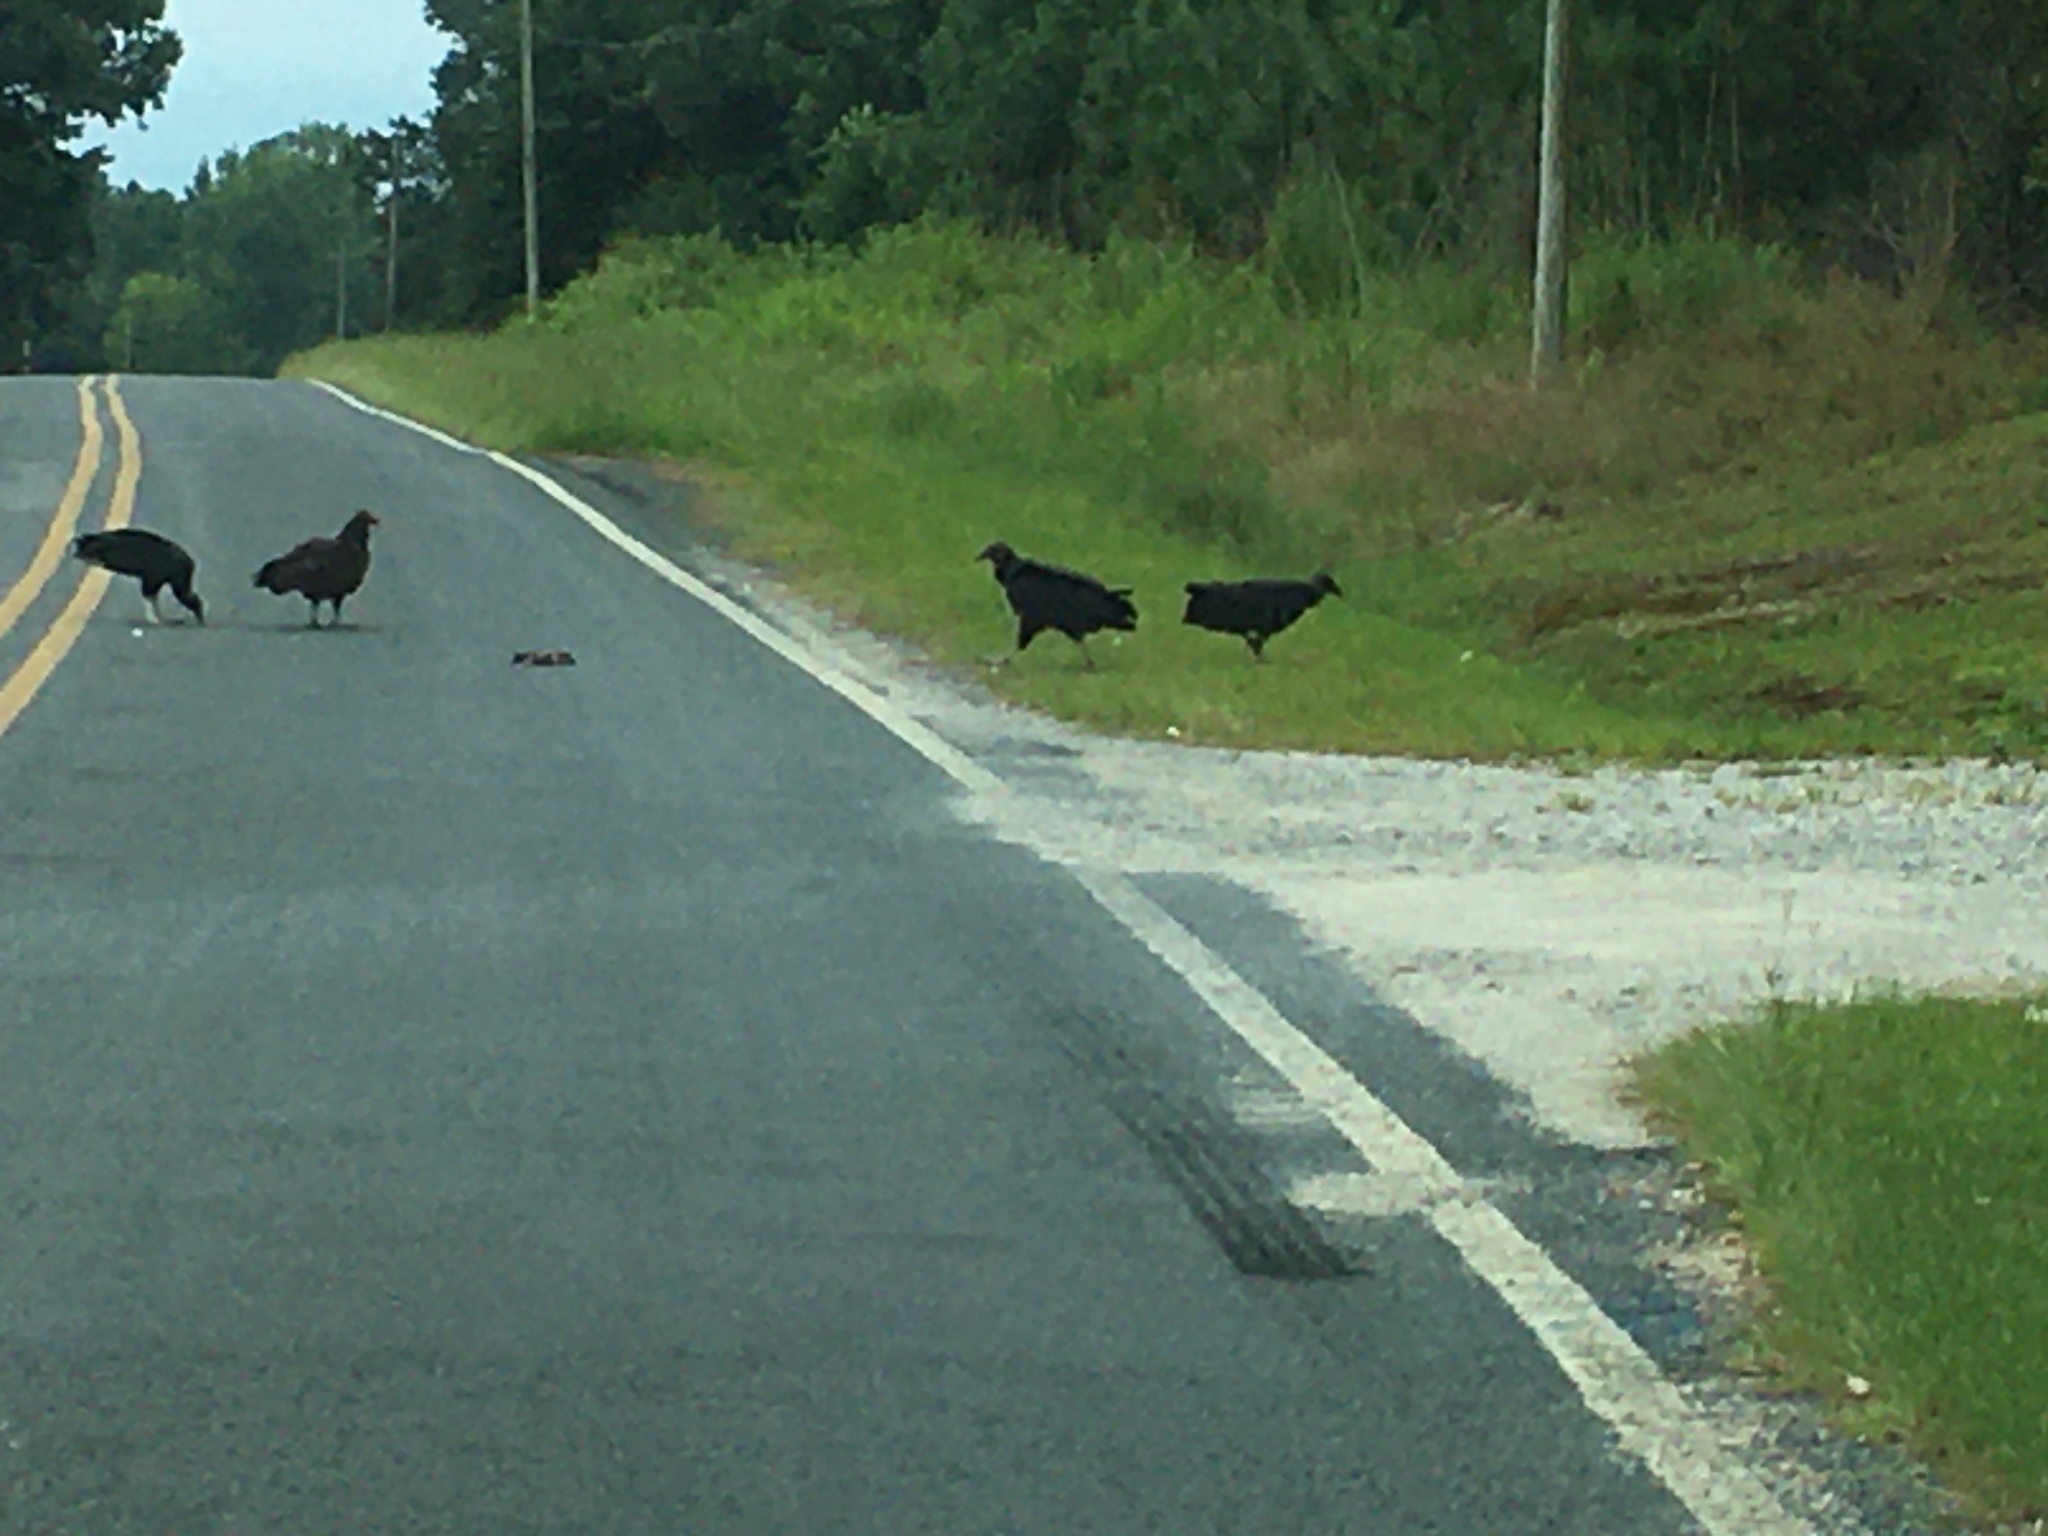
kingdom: Animalia
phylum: Chordata
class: Aves
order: Accipitriformes
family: Cathartidae
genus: Coragyps
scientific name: Coragyps atratus
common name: Black vulture
